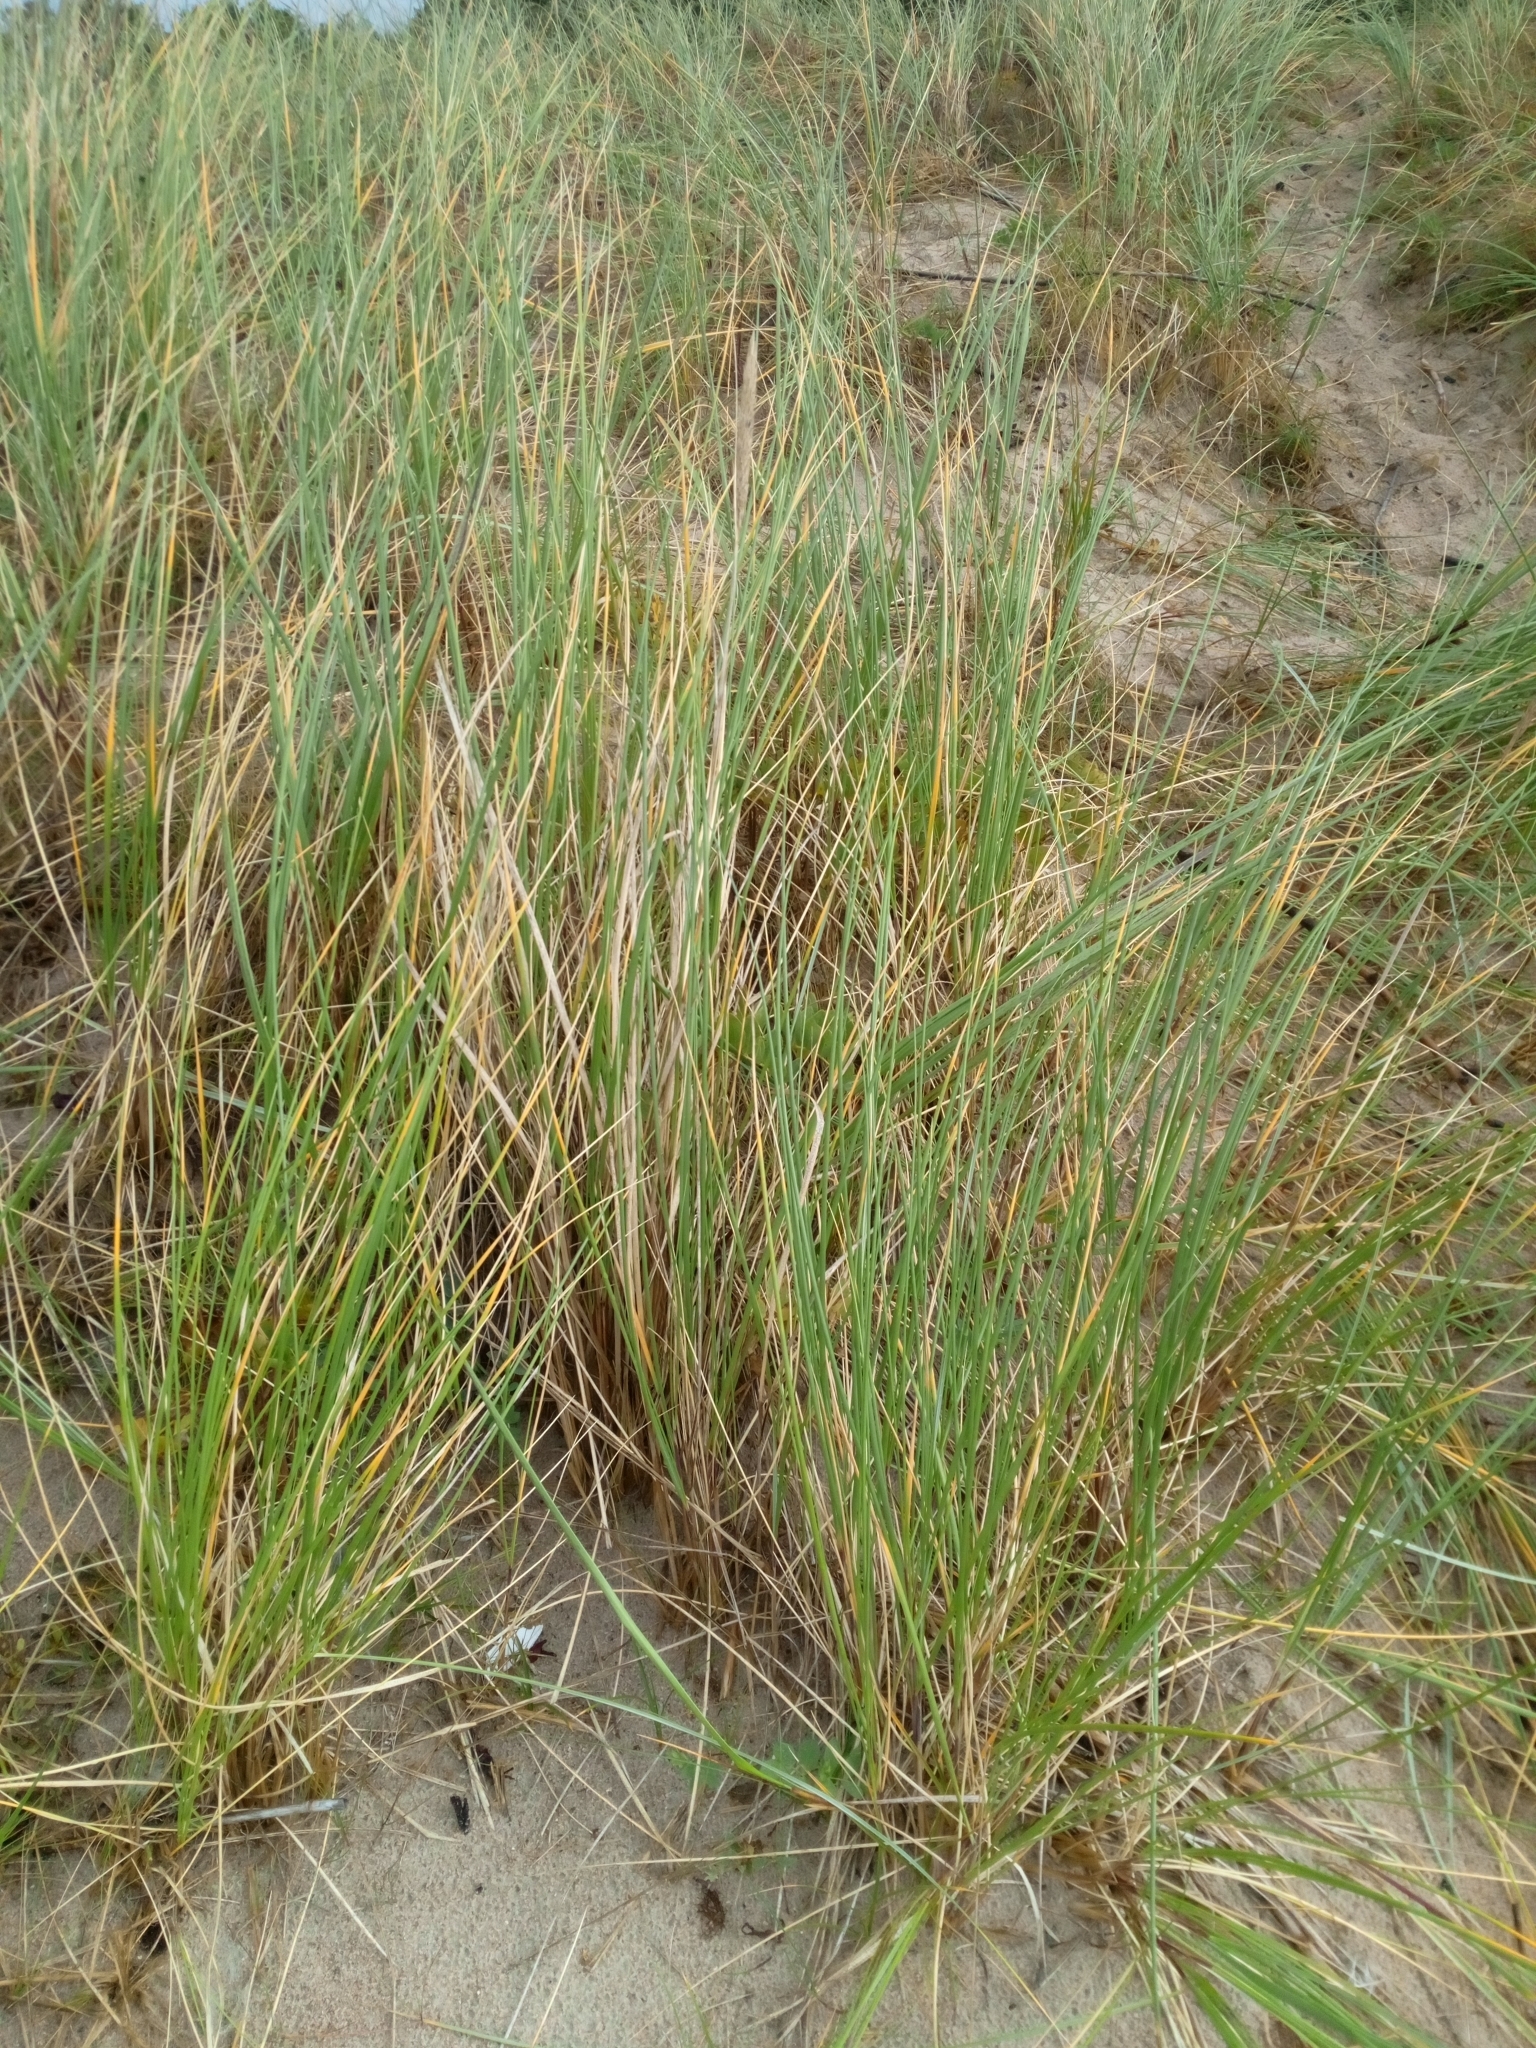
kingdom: Plantae
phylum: Tracheophyta
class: Liliopsida
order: Poales
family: Poaceae
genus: Calamagrostis
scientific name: Calamagrostis arenaria
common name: European beachgrass
